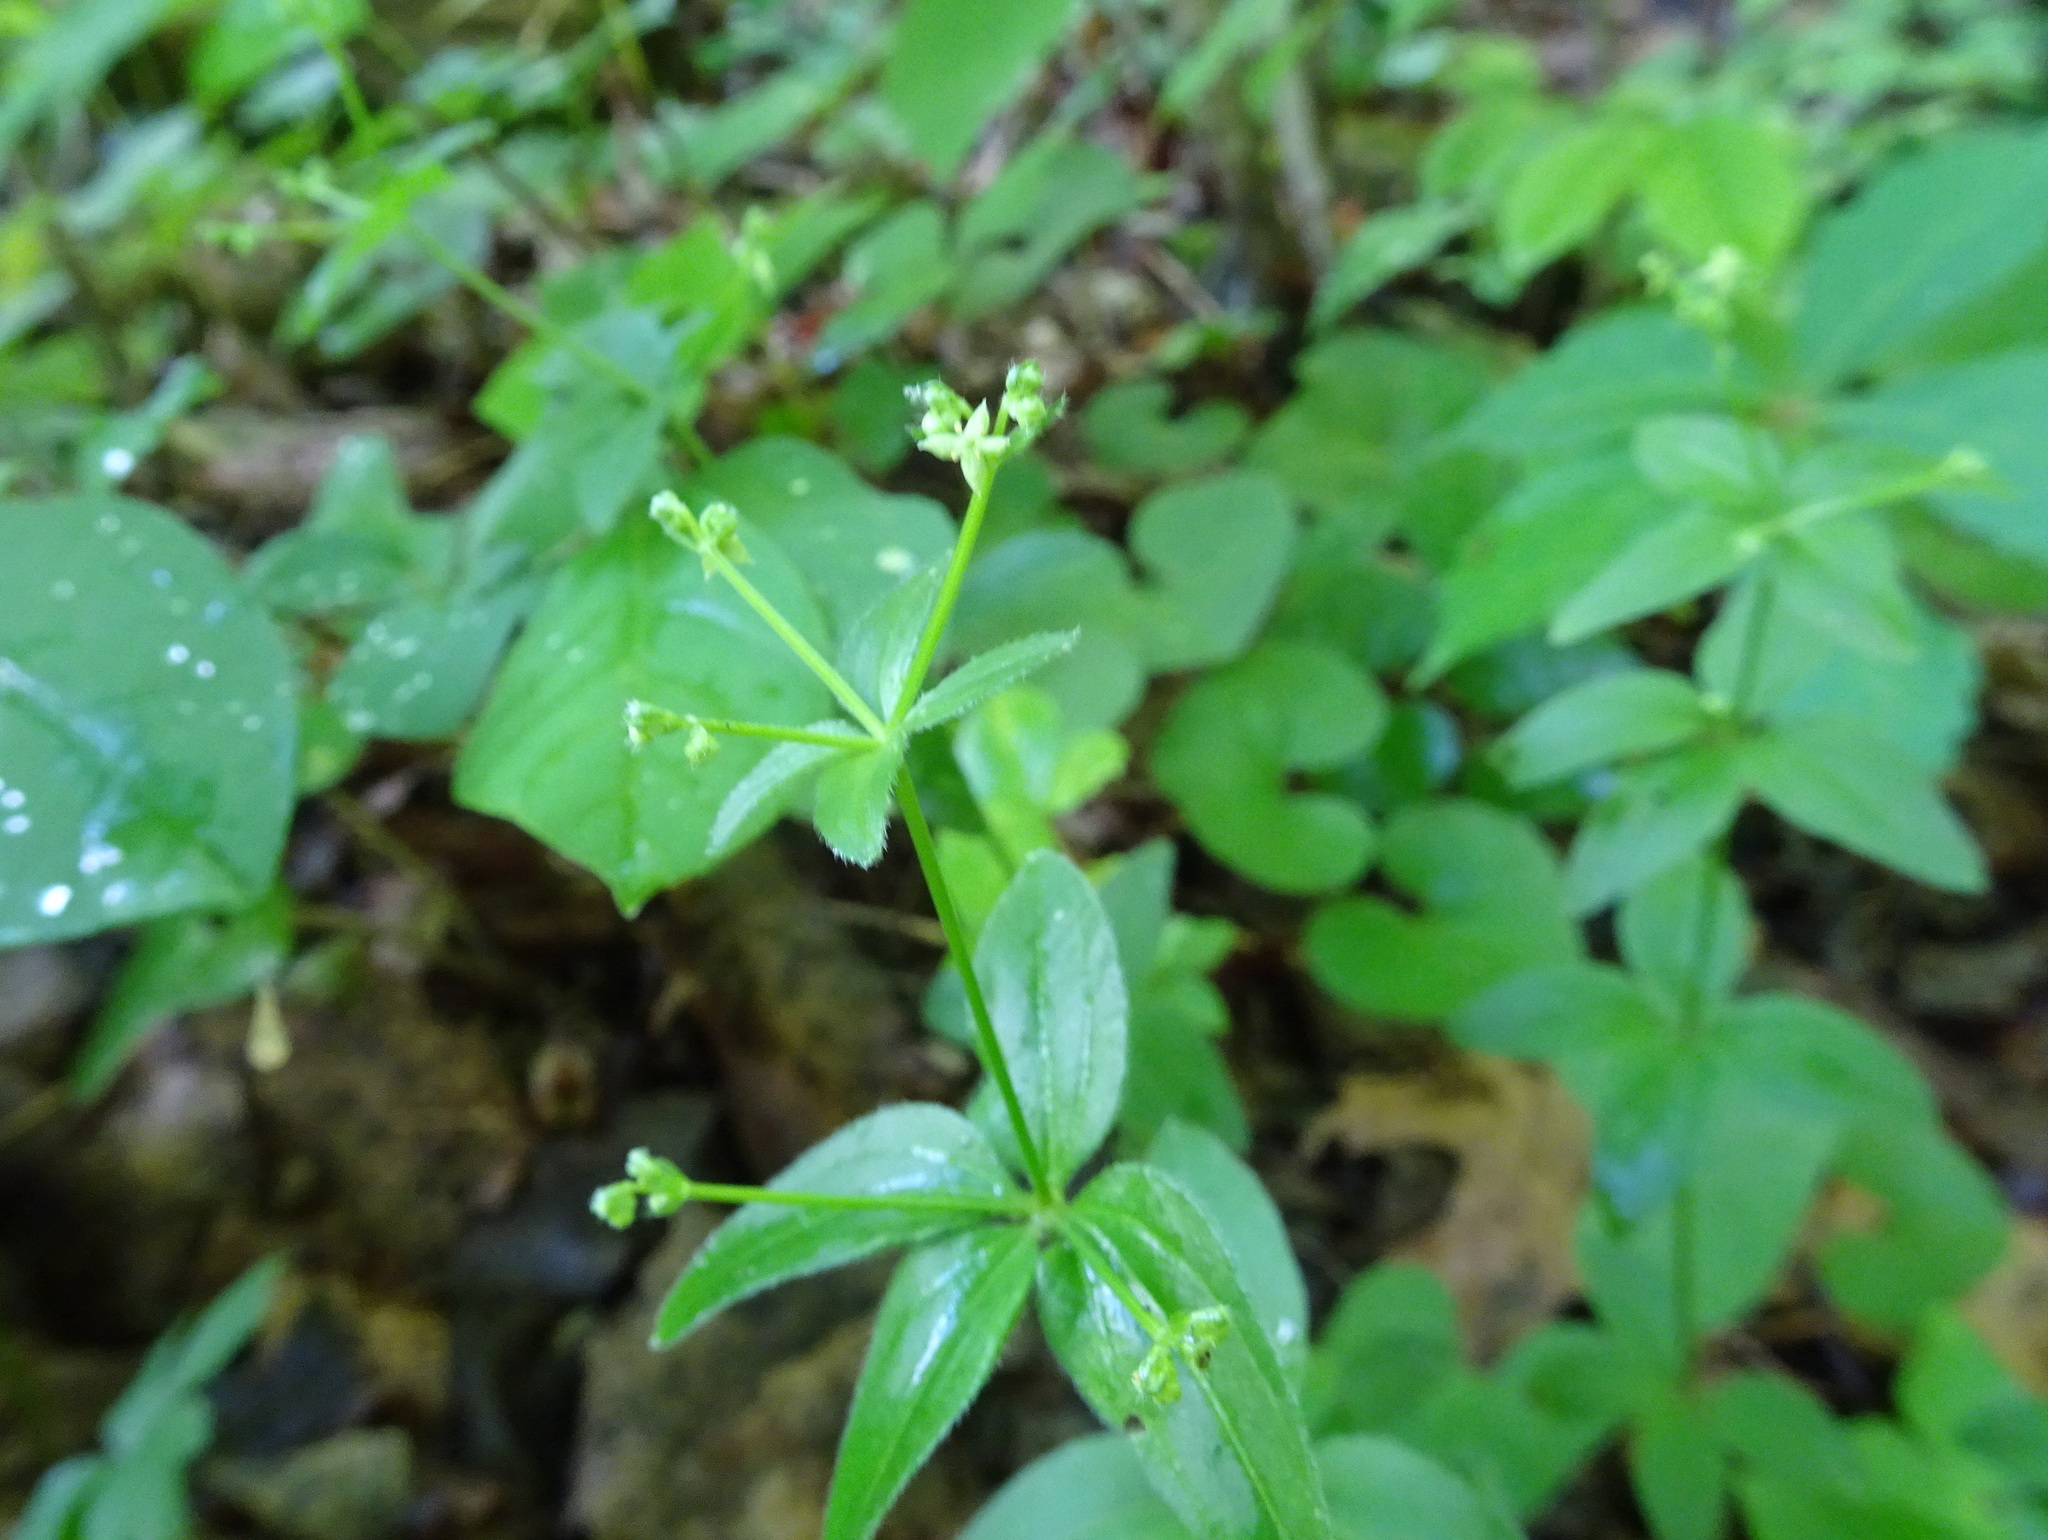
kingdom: Plantae
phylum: Tracheophyta
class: Magnoliopsida
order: Gentianales
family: Rubiaceae
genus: Galium
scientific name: Galium circaezans
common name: Forest bedstraw
